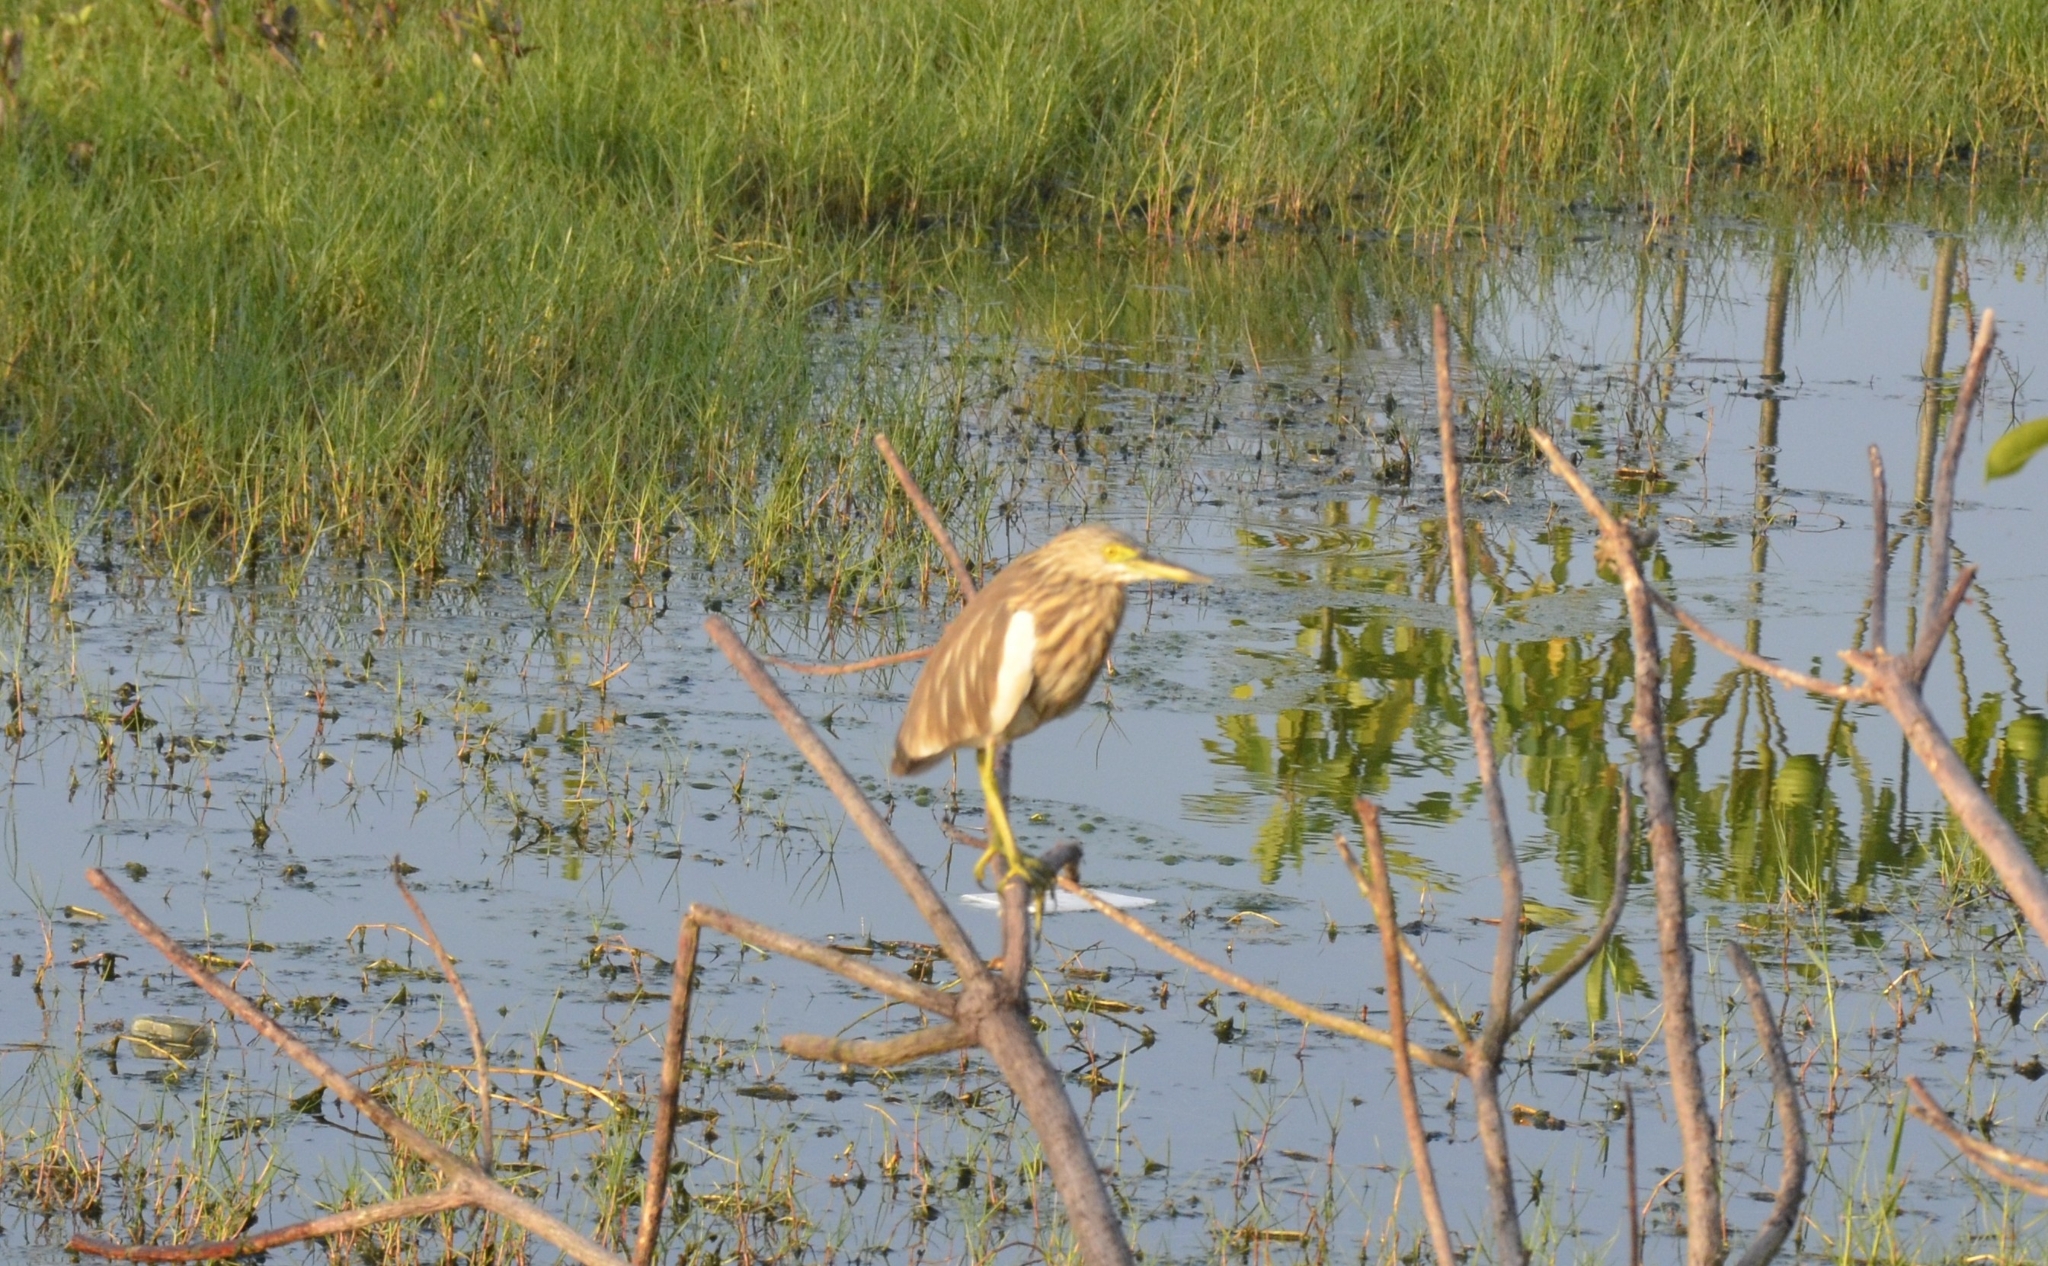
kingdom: Animalia
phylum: Chordata
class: Aves
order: Pelecaniformes
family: Ardeidae
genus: Ardeola
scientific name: Ardeola grayii
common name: Indian pond heron
